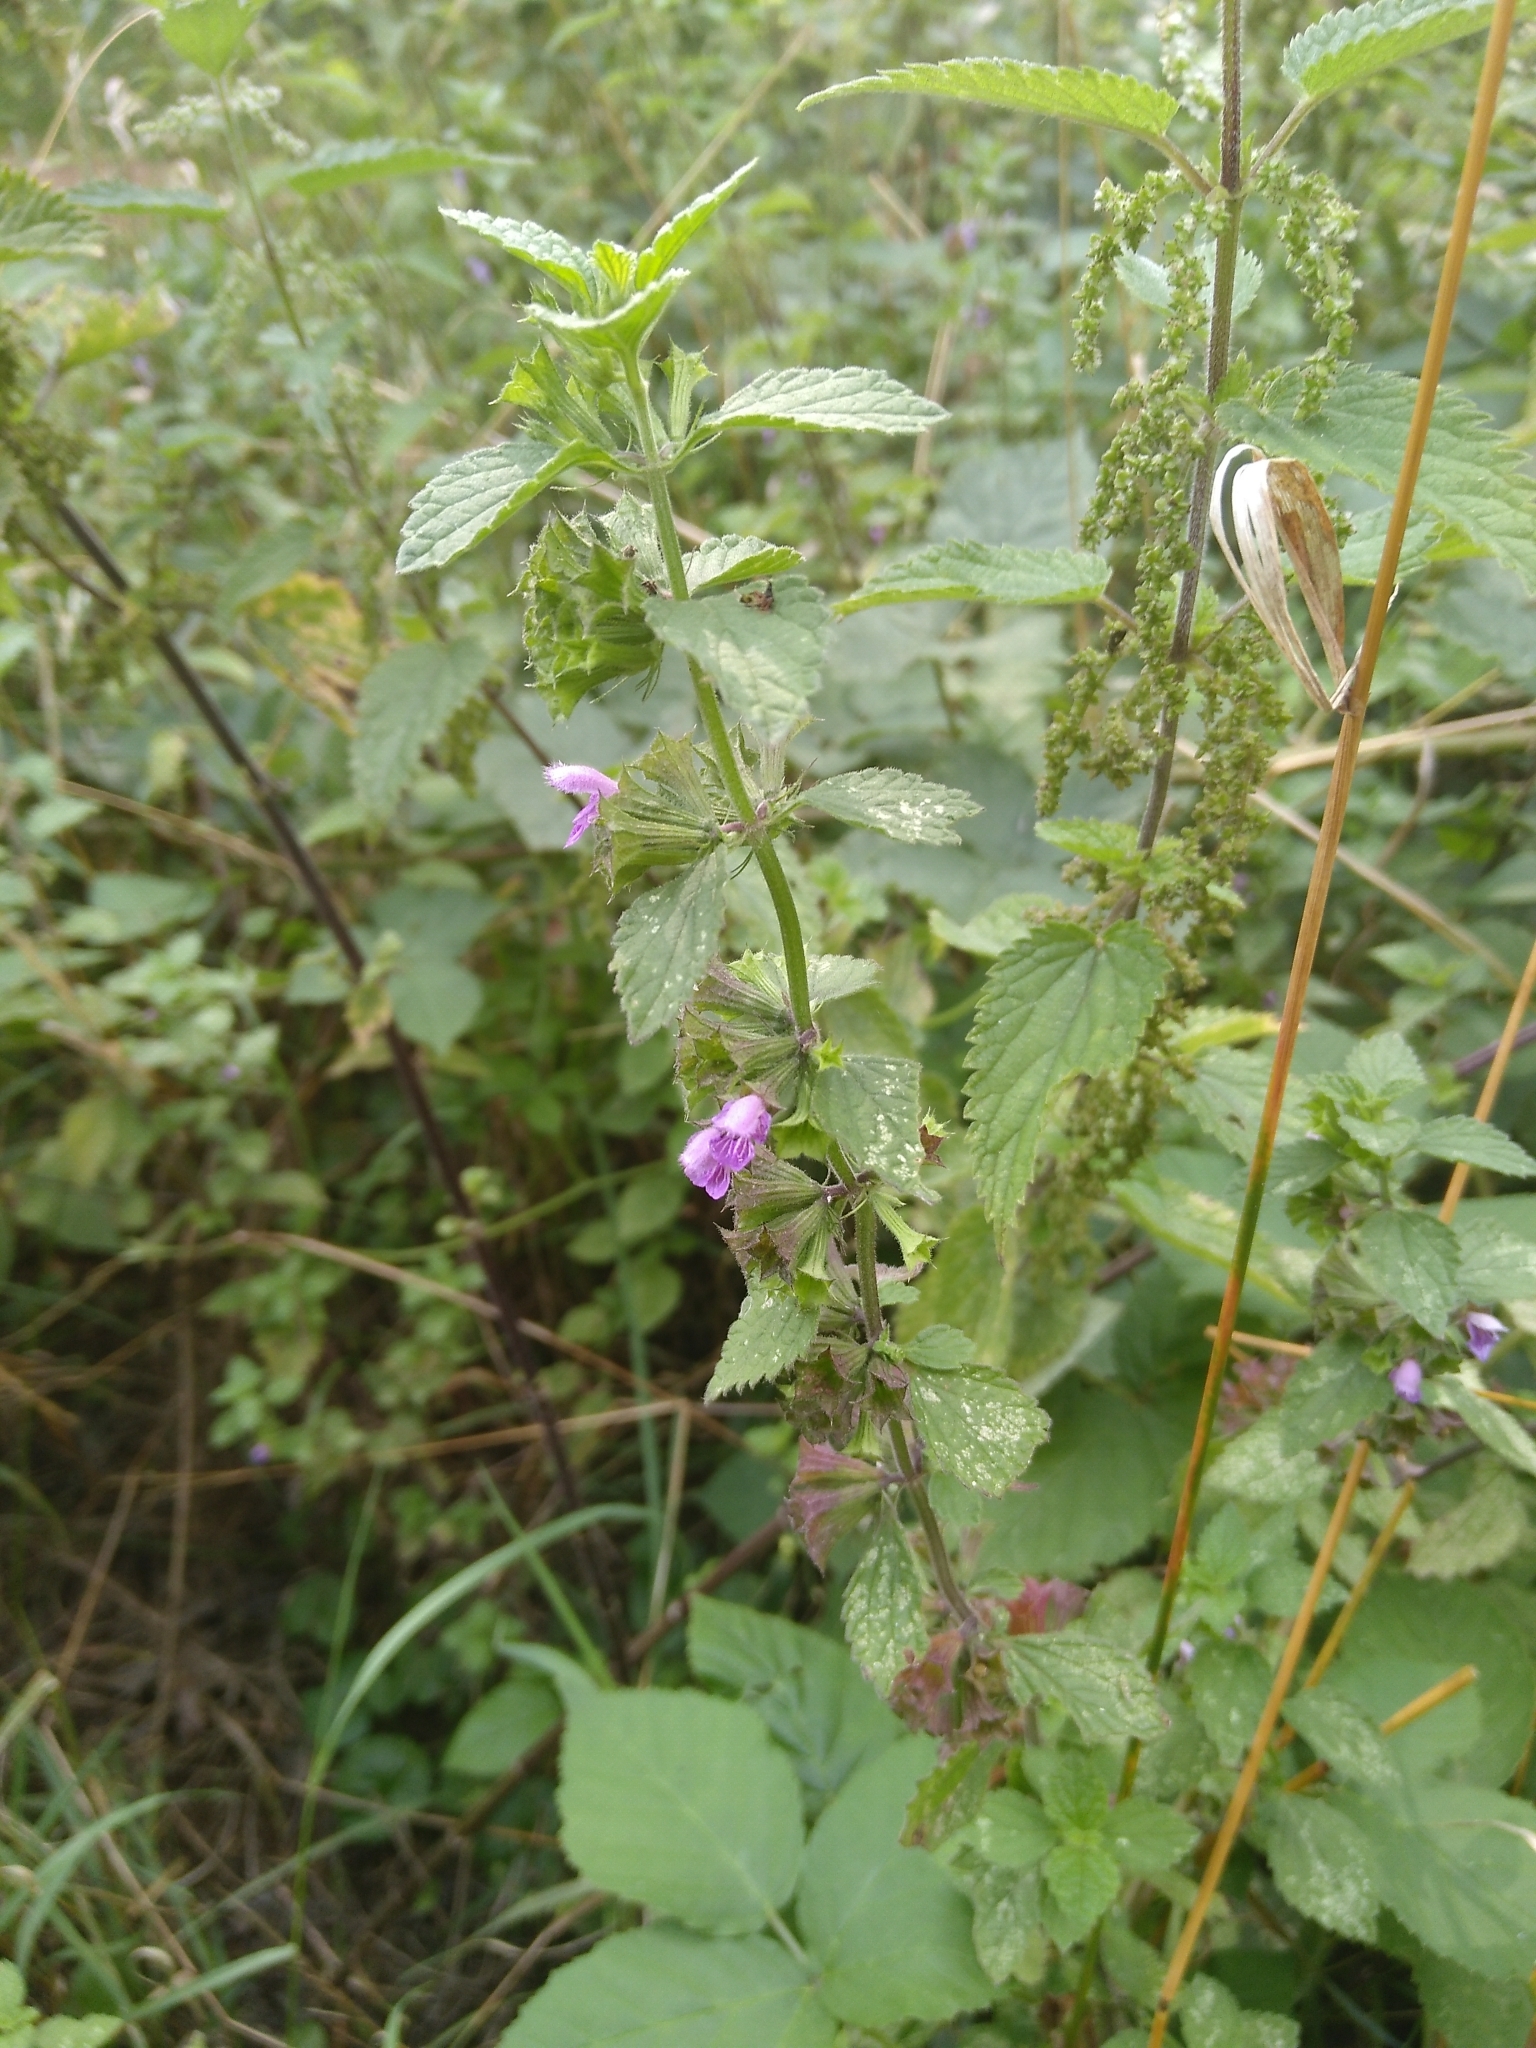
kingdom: Plantae
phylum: Tracheophyta
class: Magnoliopsida
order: Lamiales
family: Lamiaceae
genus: Ballota
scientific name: Ballota nigra
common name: Black horehound
